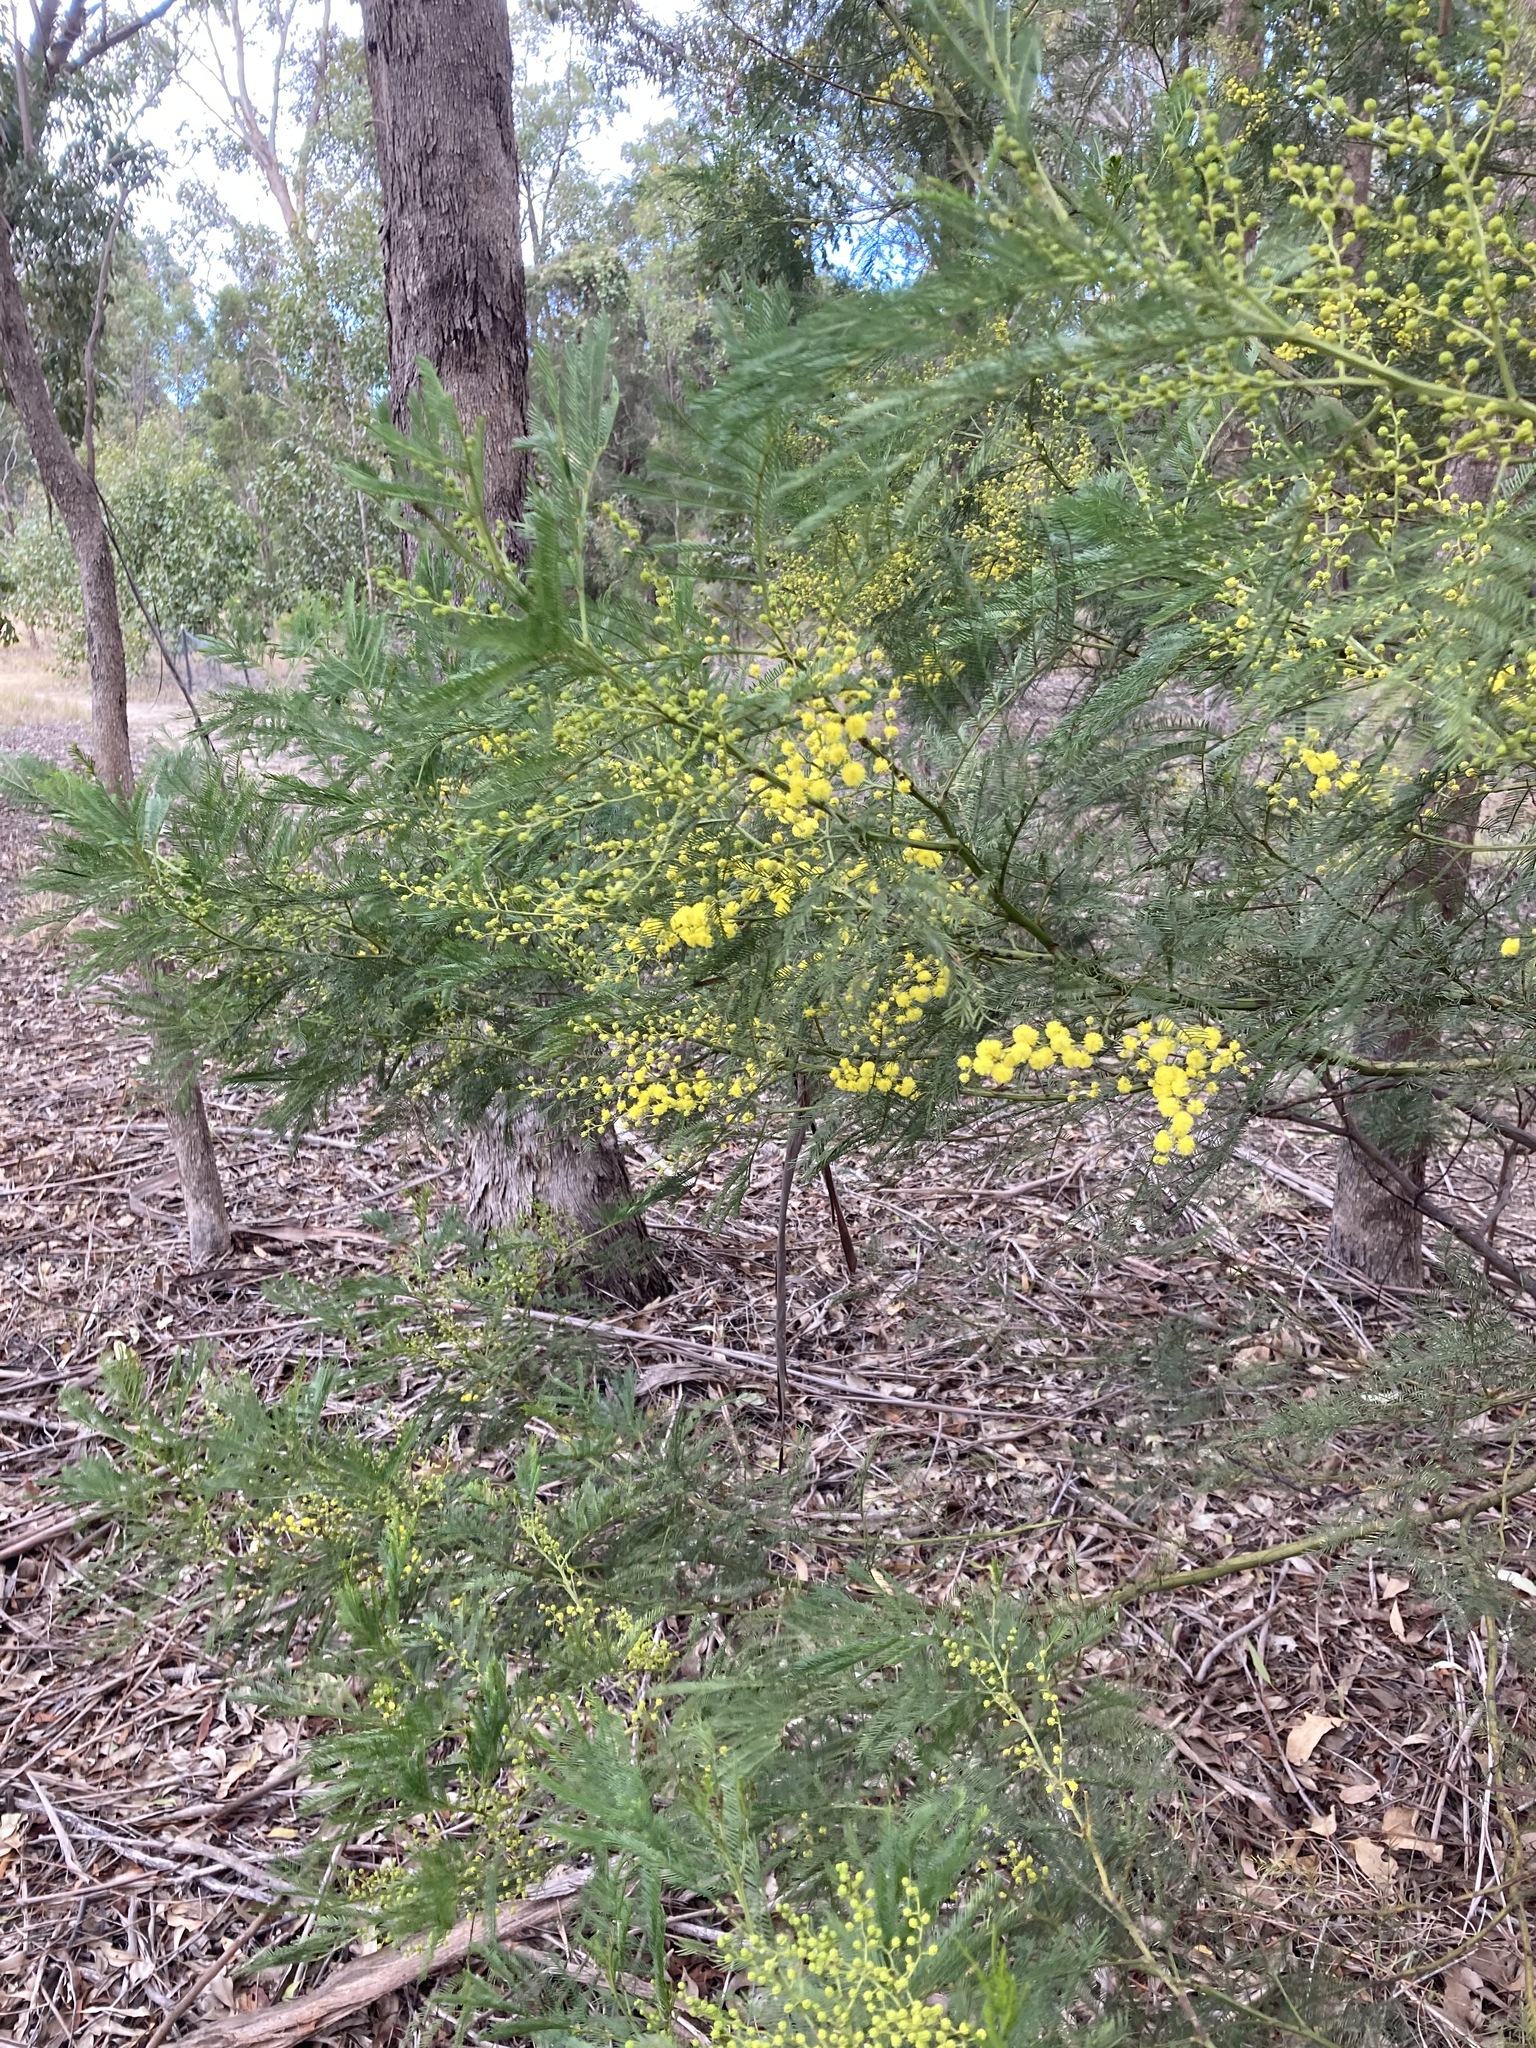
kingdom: Plantae
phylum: Tracheophyta
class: Magnoliopsida
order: Fabales
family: Fabaceae
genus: Acacia
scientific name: Acacia decurrens
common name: Green wattle
